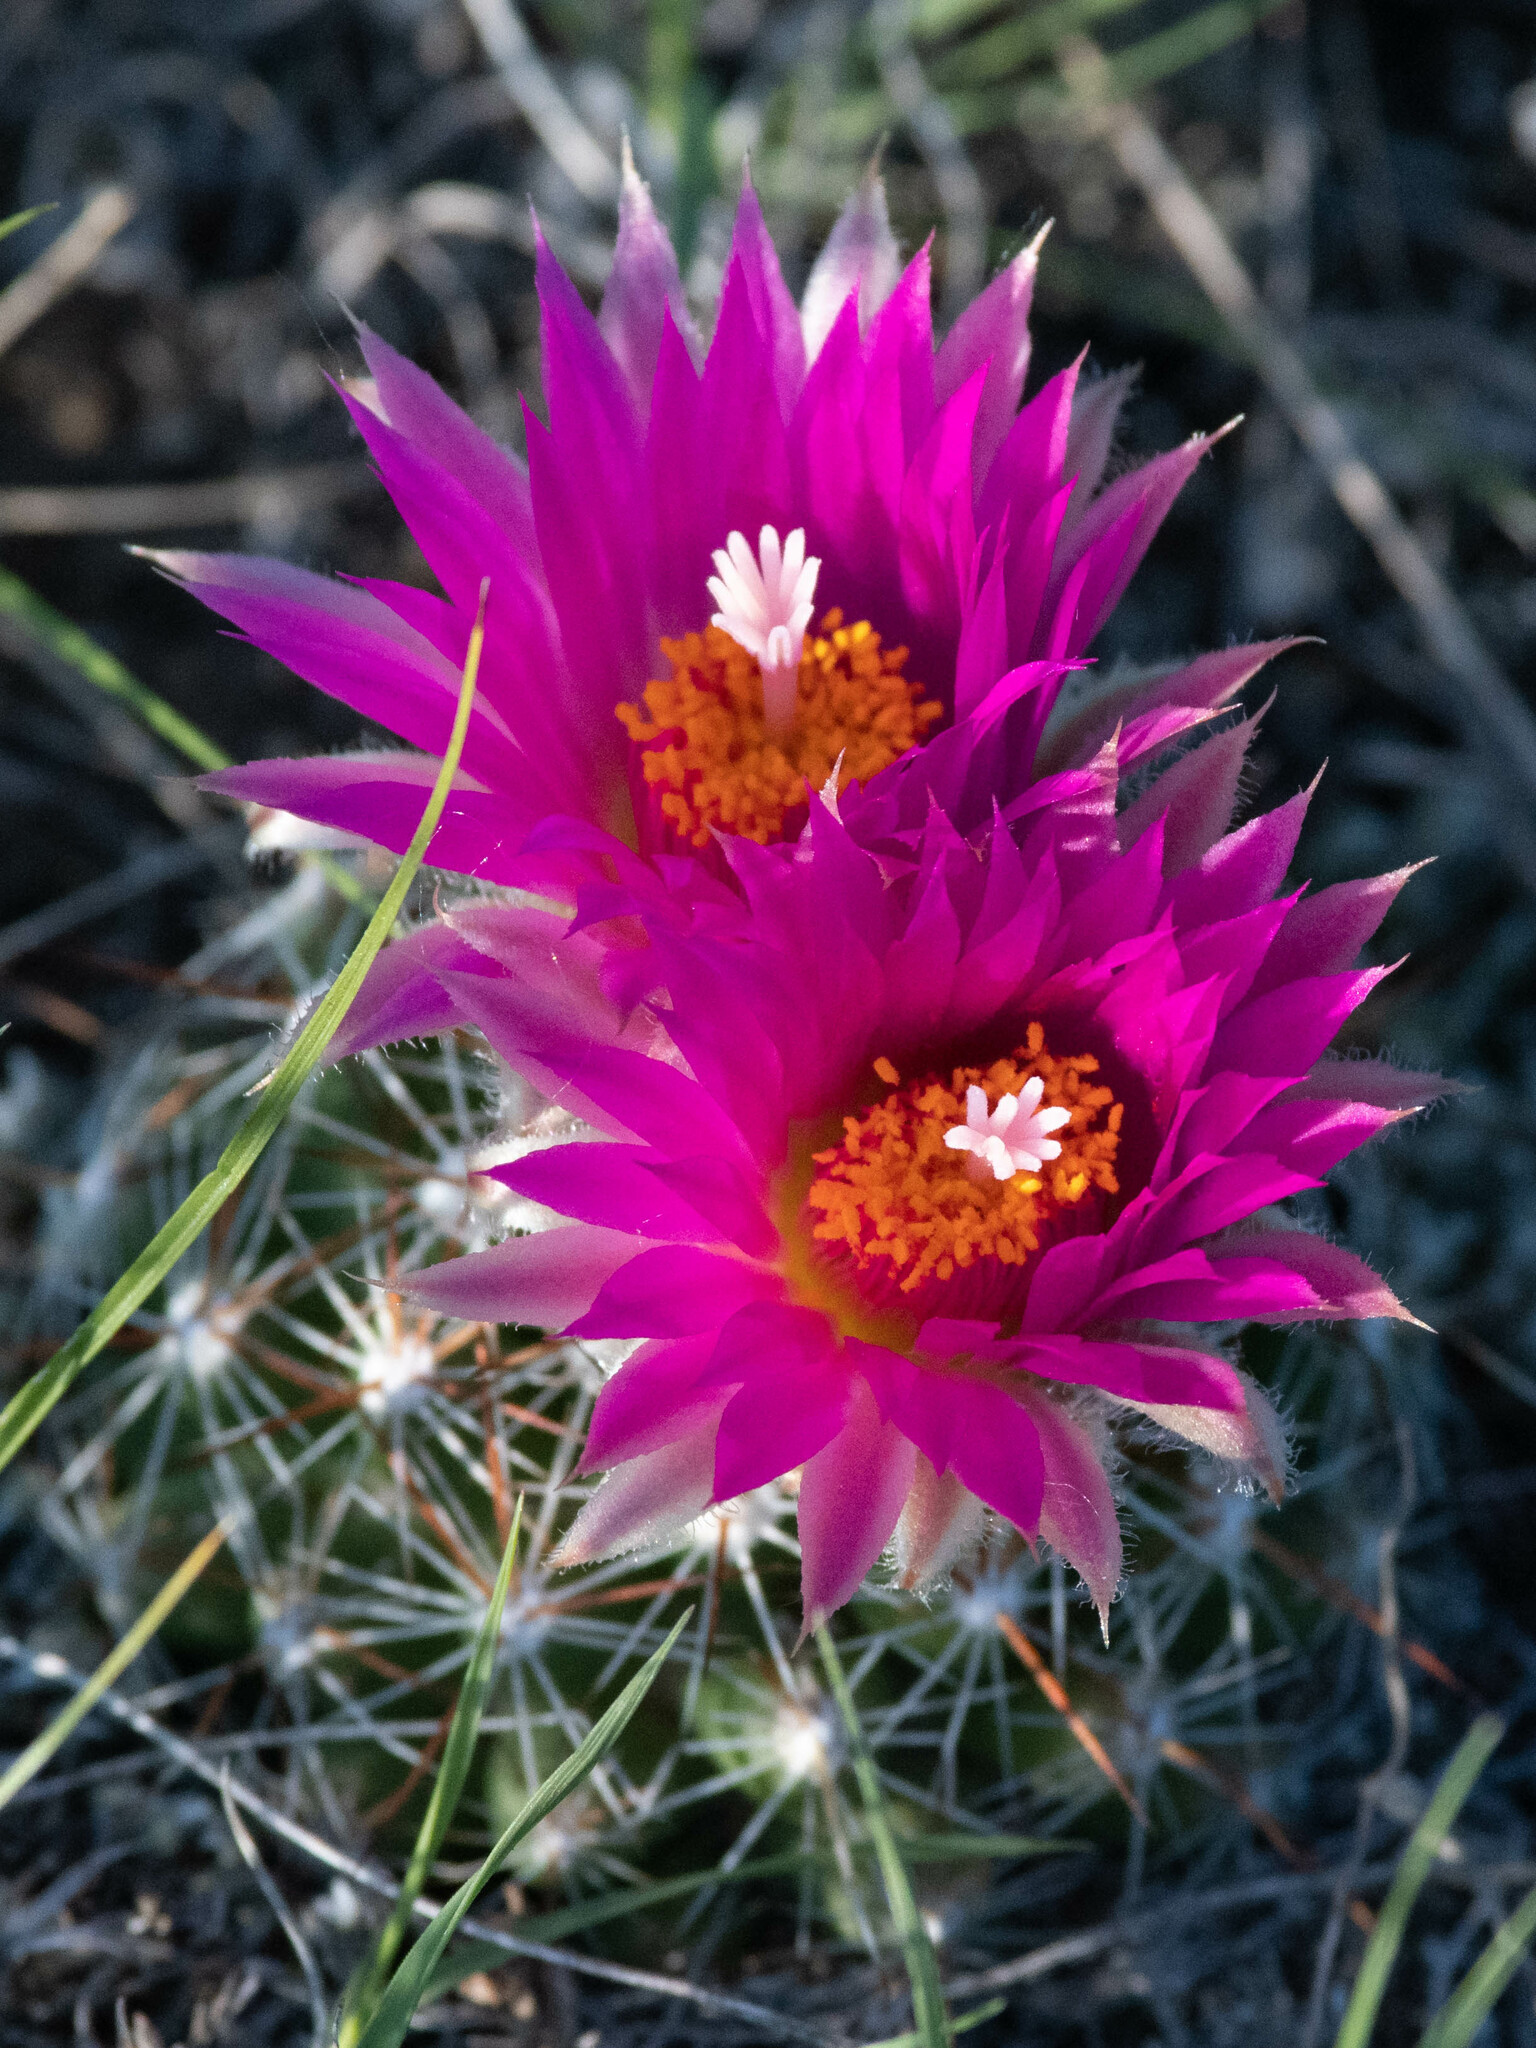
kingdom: Plantae
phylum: Tracheophyta
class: Magnoliopsida
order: Caryophyllales
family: Cactaceae
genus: Pelecyphora
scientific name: Pelecyphora vivipara
